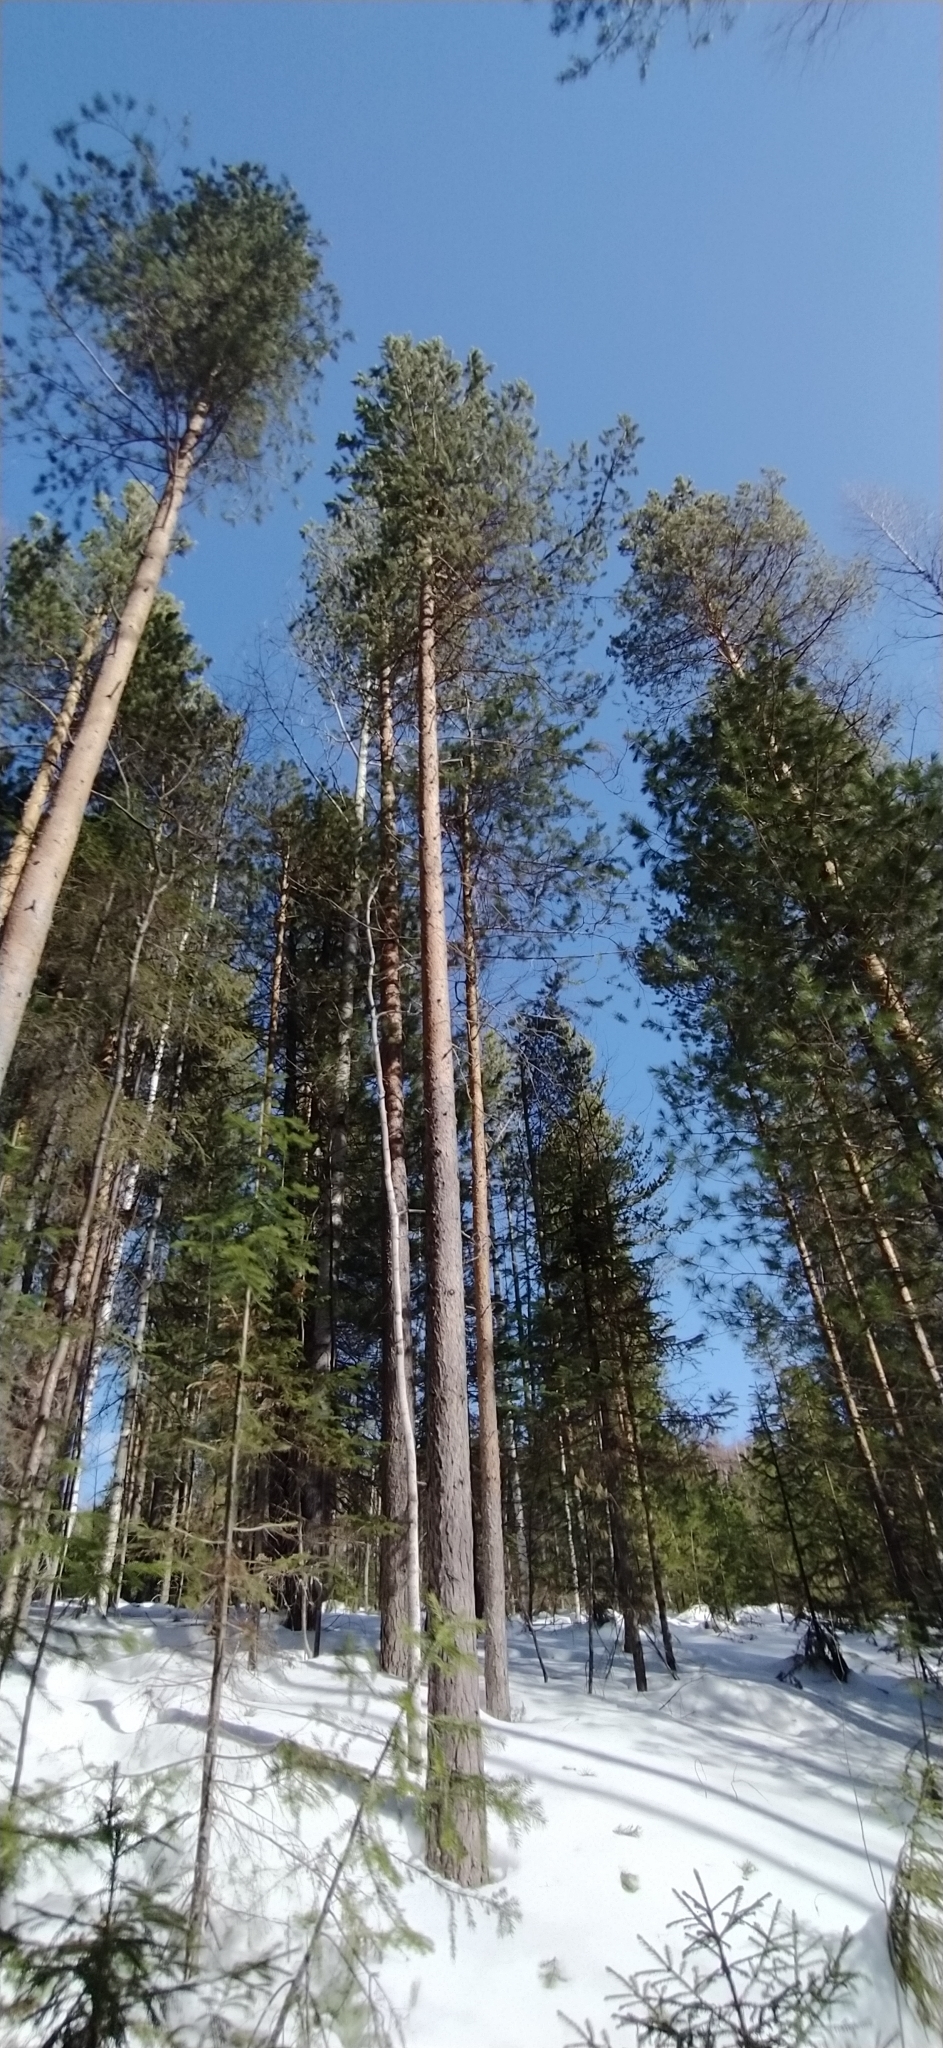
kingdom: Plantae
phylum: Tracheophyta
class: Pinopsida
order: Pinales
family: Pinaceae
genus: Pinus
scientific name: Pinus sylvestris
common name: Scots pine
